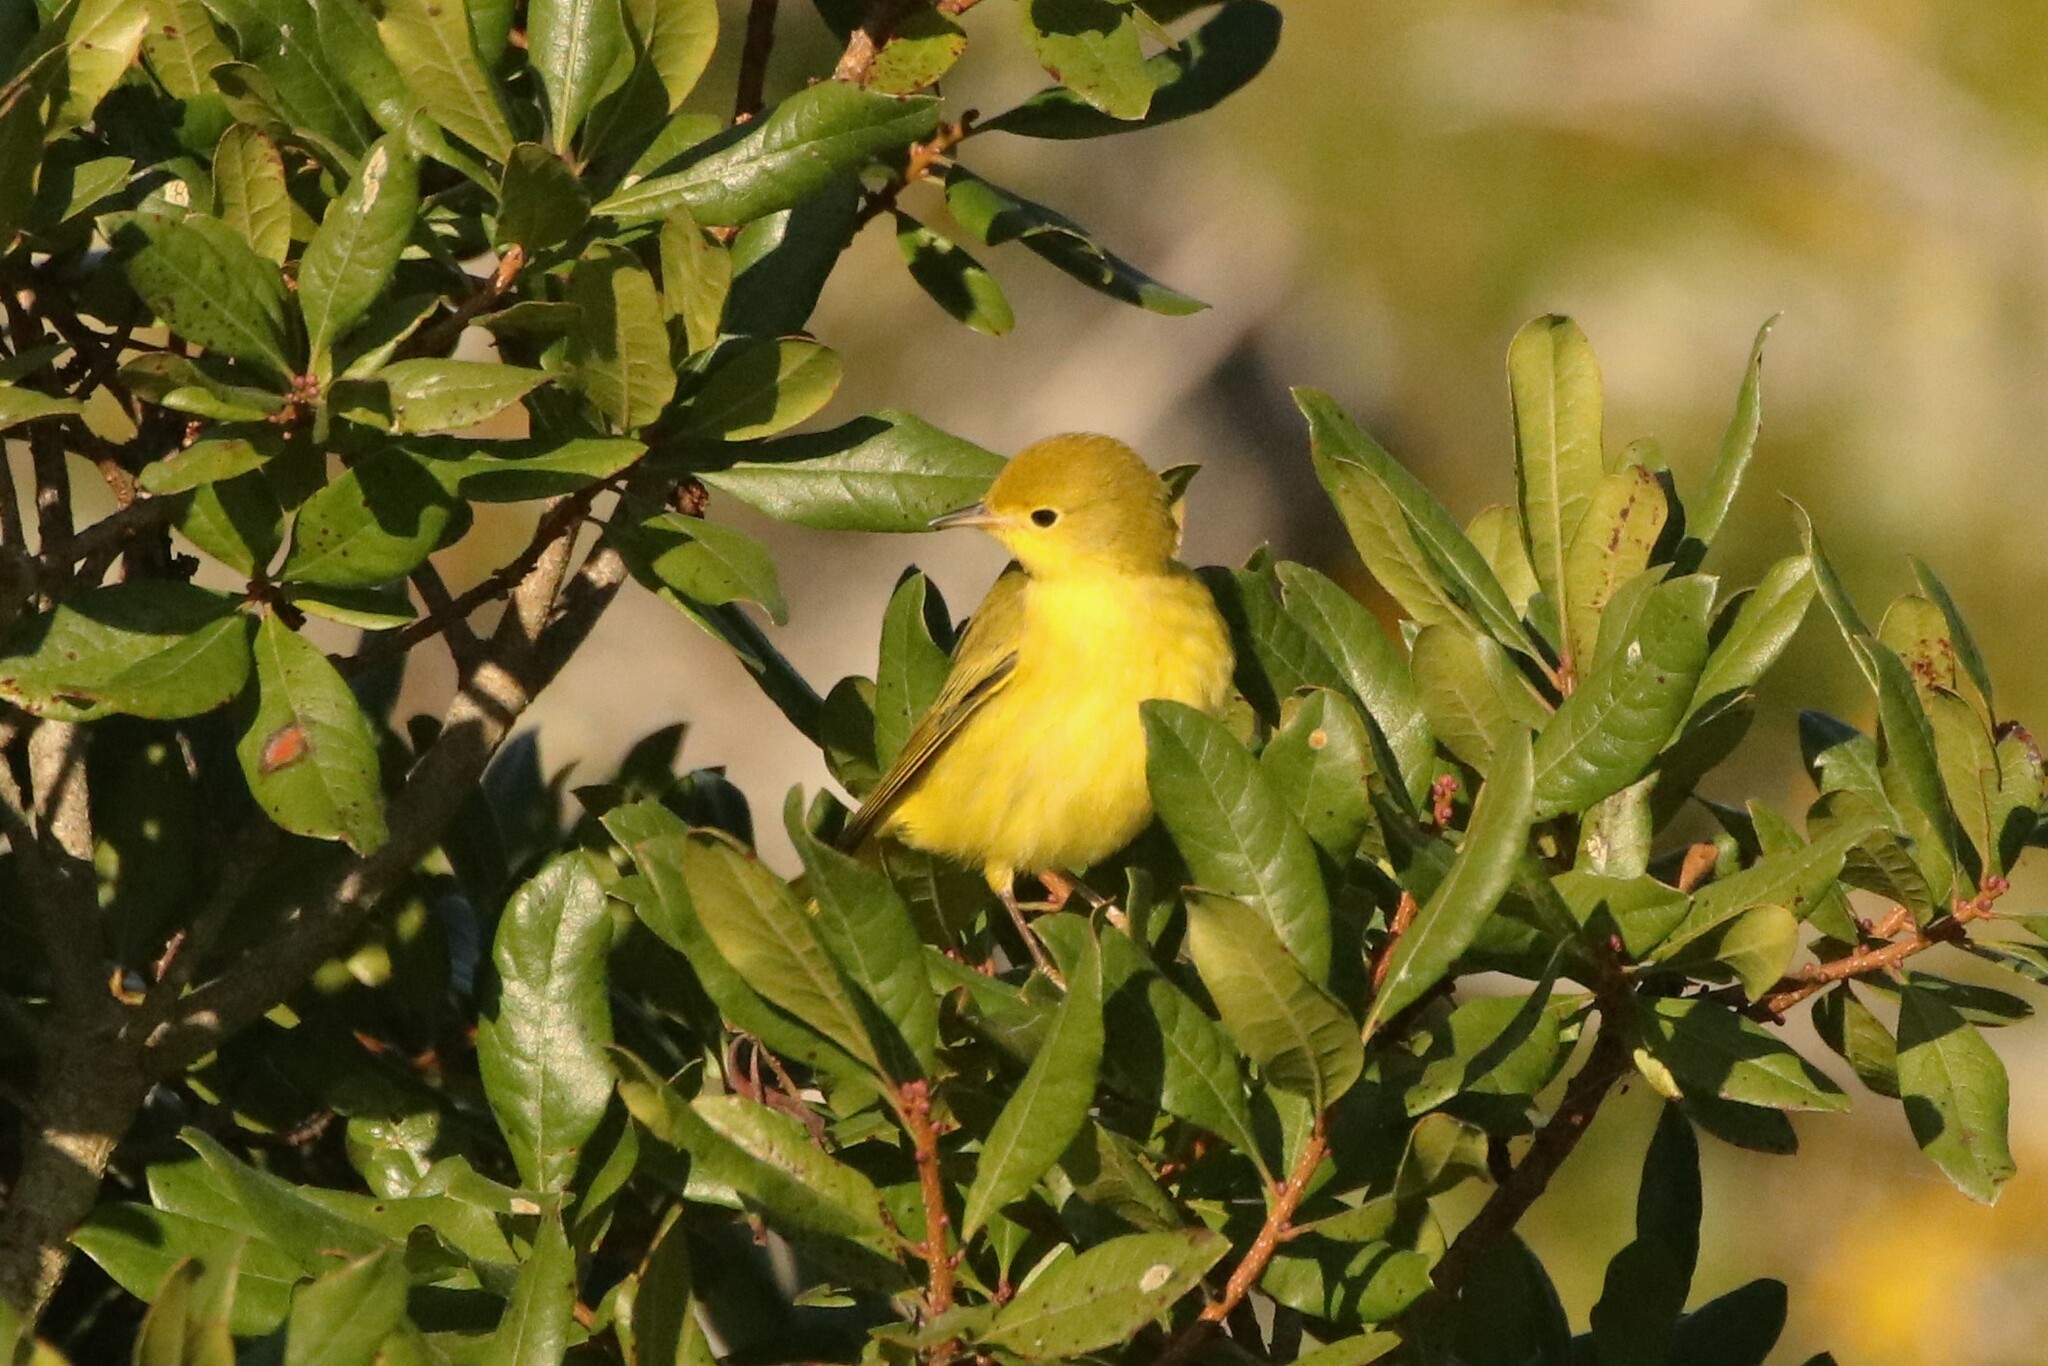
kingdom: Animalia
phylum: Chordata
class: Aves
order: Passeriformes
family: Parulidae
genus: Setophaga
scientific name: Setophaga petechia
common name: Yellow warbler
